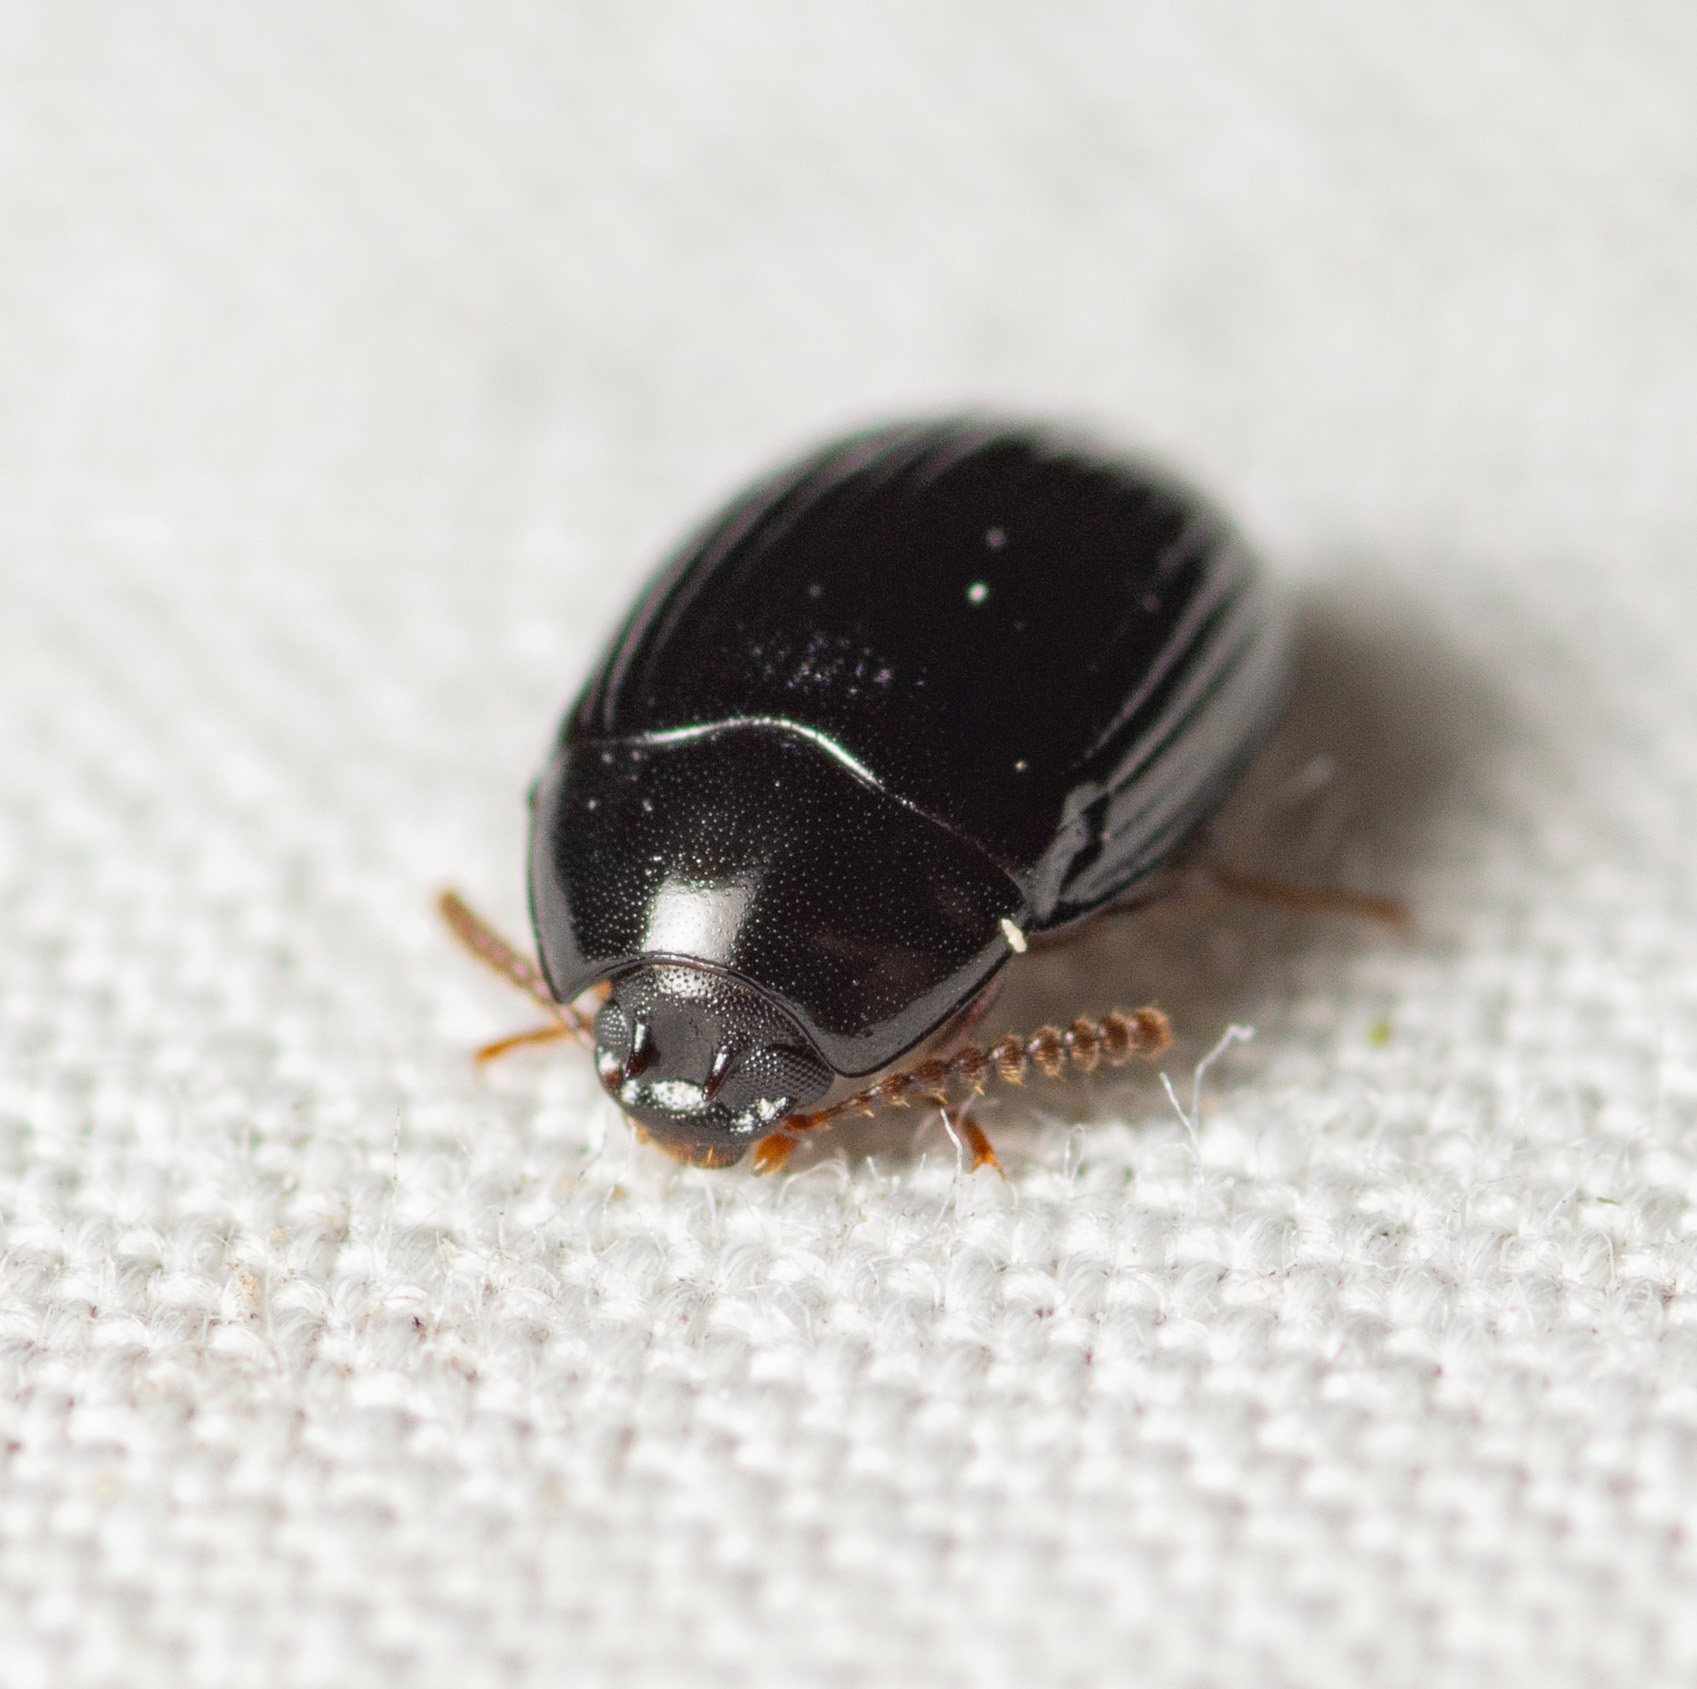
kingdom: Animalia
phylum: Arthropoda
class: Insecta
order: Coleoptera
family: Tenebrionidae
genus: Platydema
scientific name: Platydema excavata
